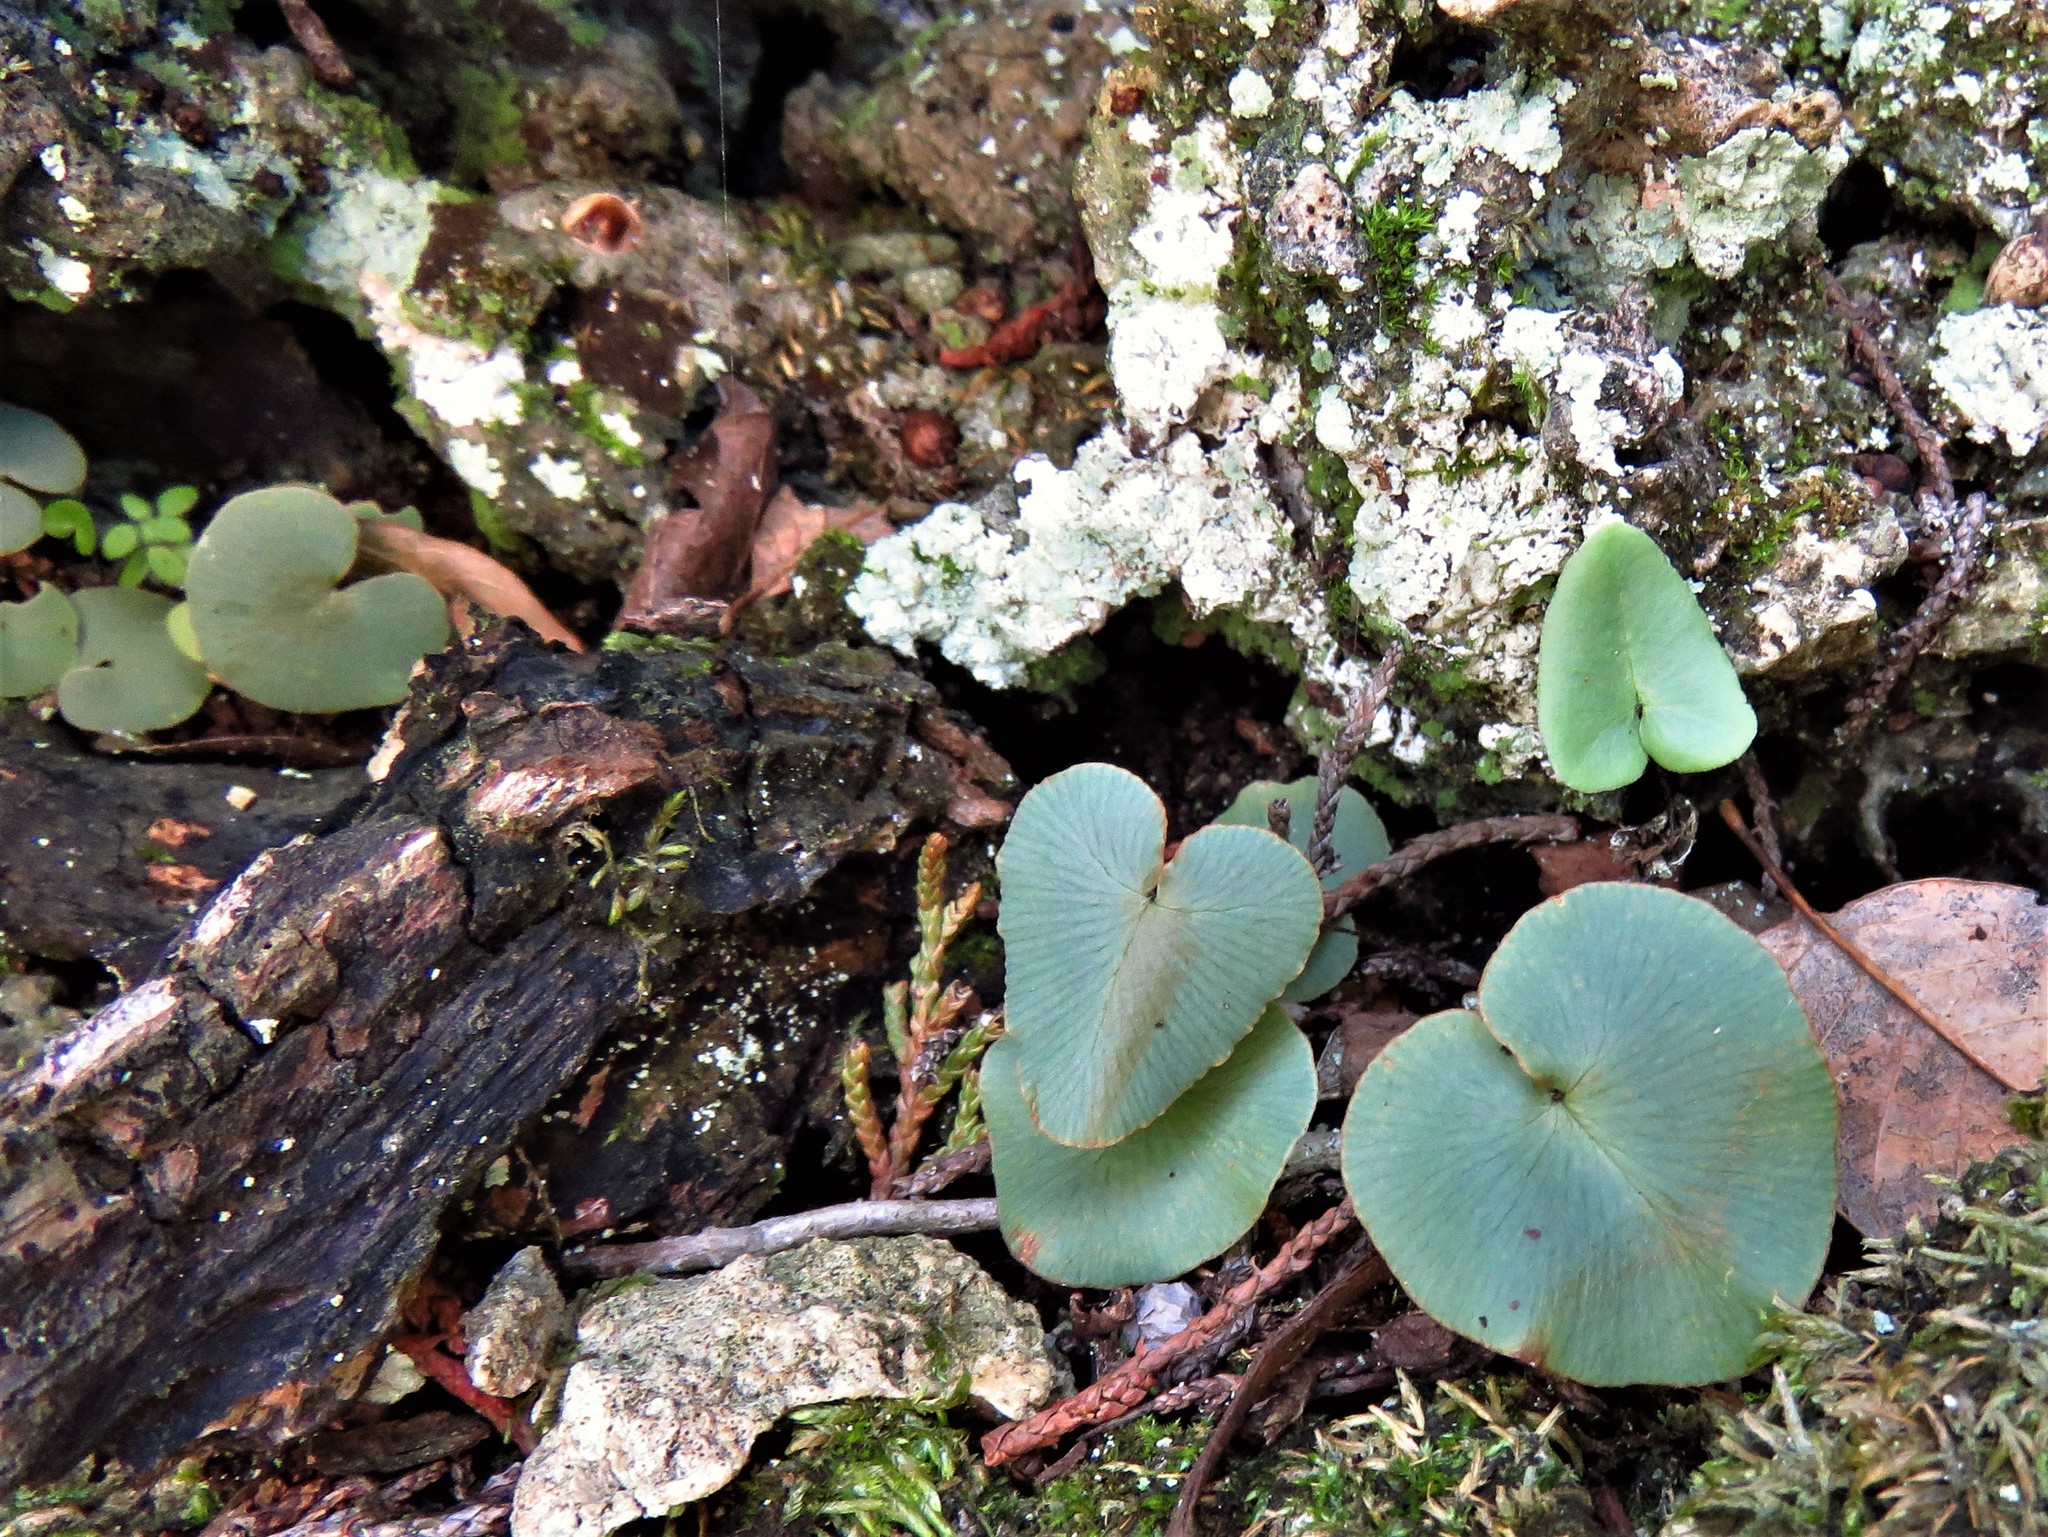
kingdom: Plantae
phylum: Tracheophyta
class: Polypodiopsida
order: Polypodiales
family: Pteridaceae
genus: Pellaea
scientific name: Pellaea atropurpurea
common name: Hairy cliffbrake
